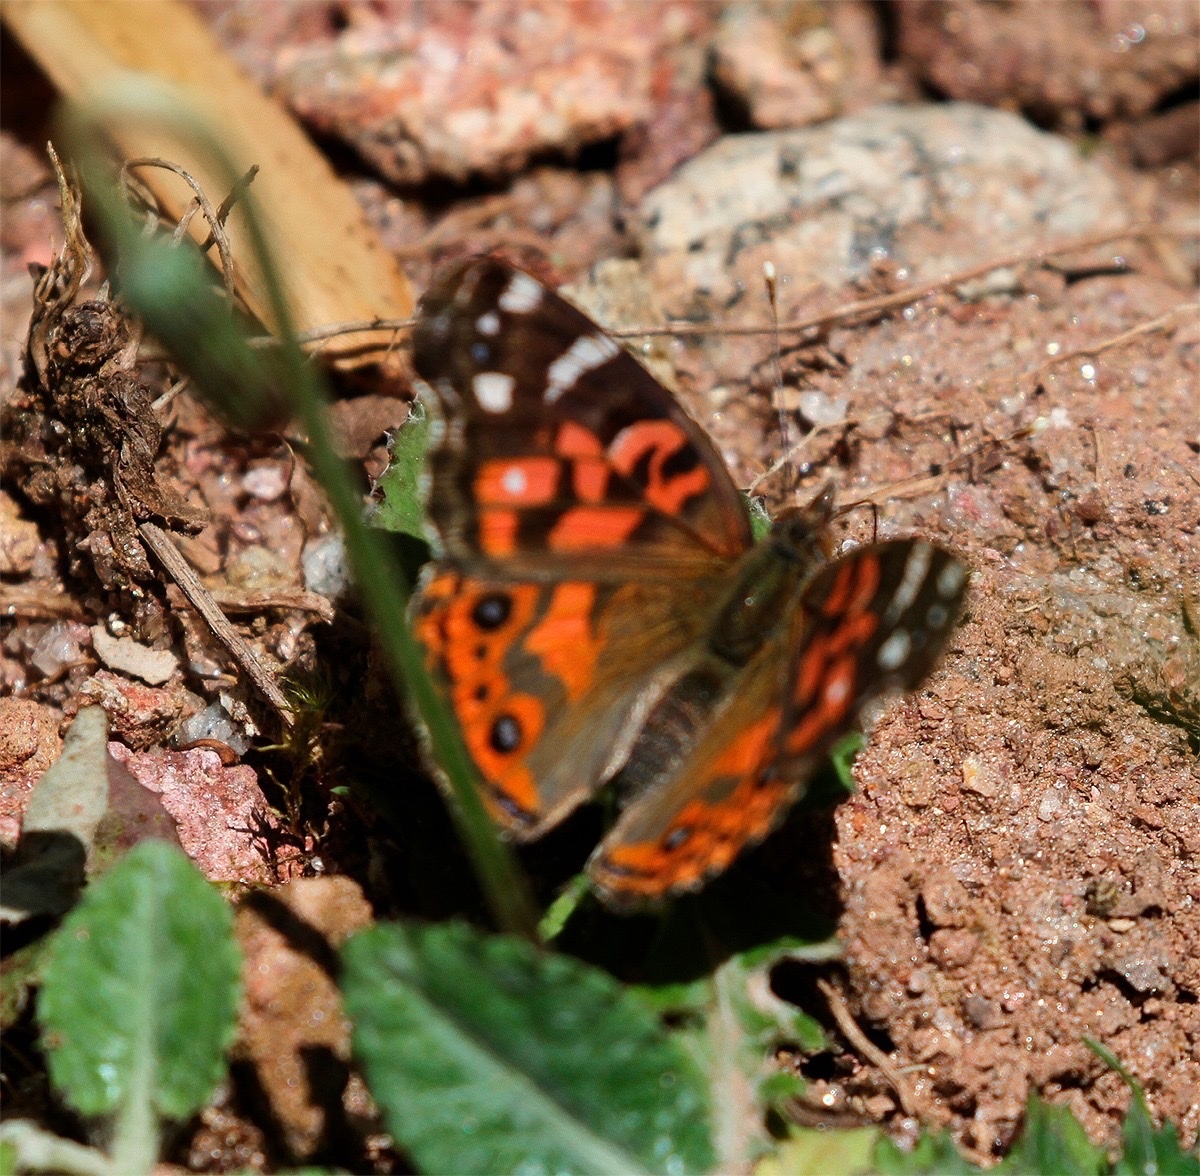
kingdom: Animalia
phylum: Arthropoda
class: Insecta
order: Lepidoptera
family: Nymphalidae
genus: Vanessa
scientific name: Vanessa braziliensis
